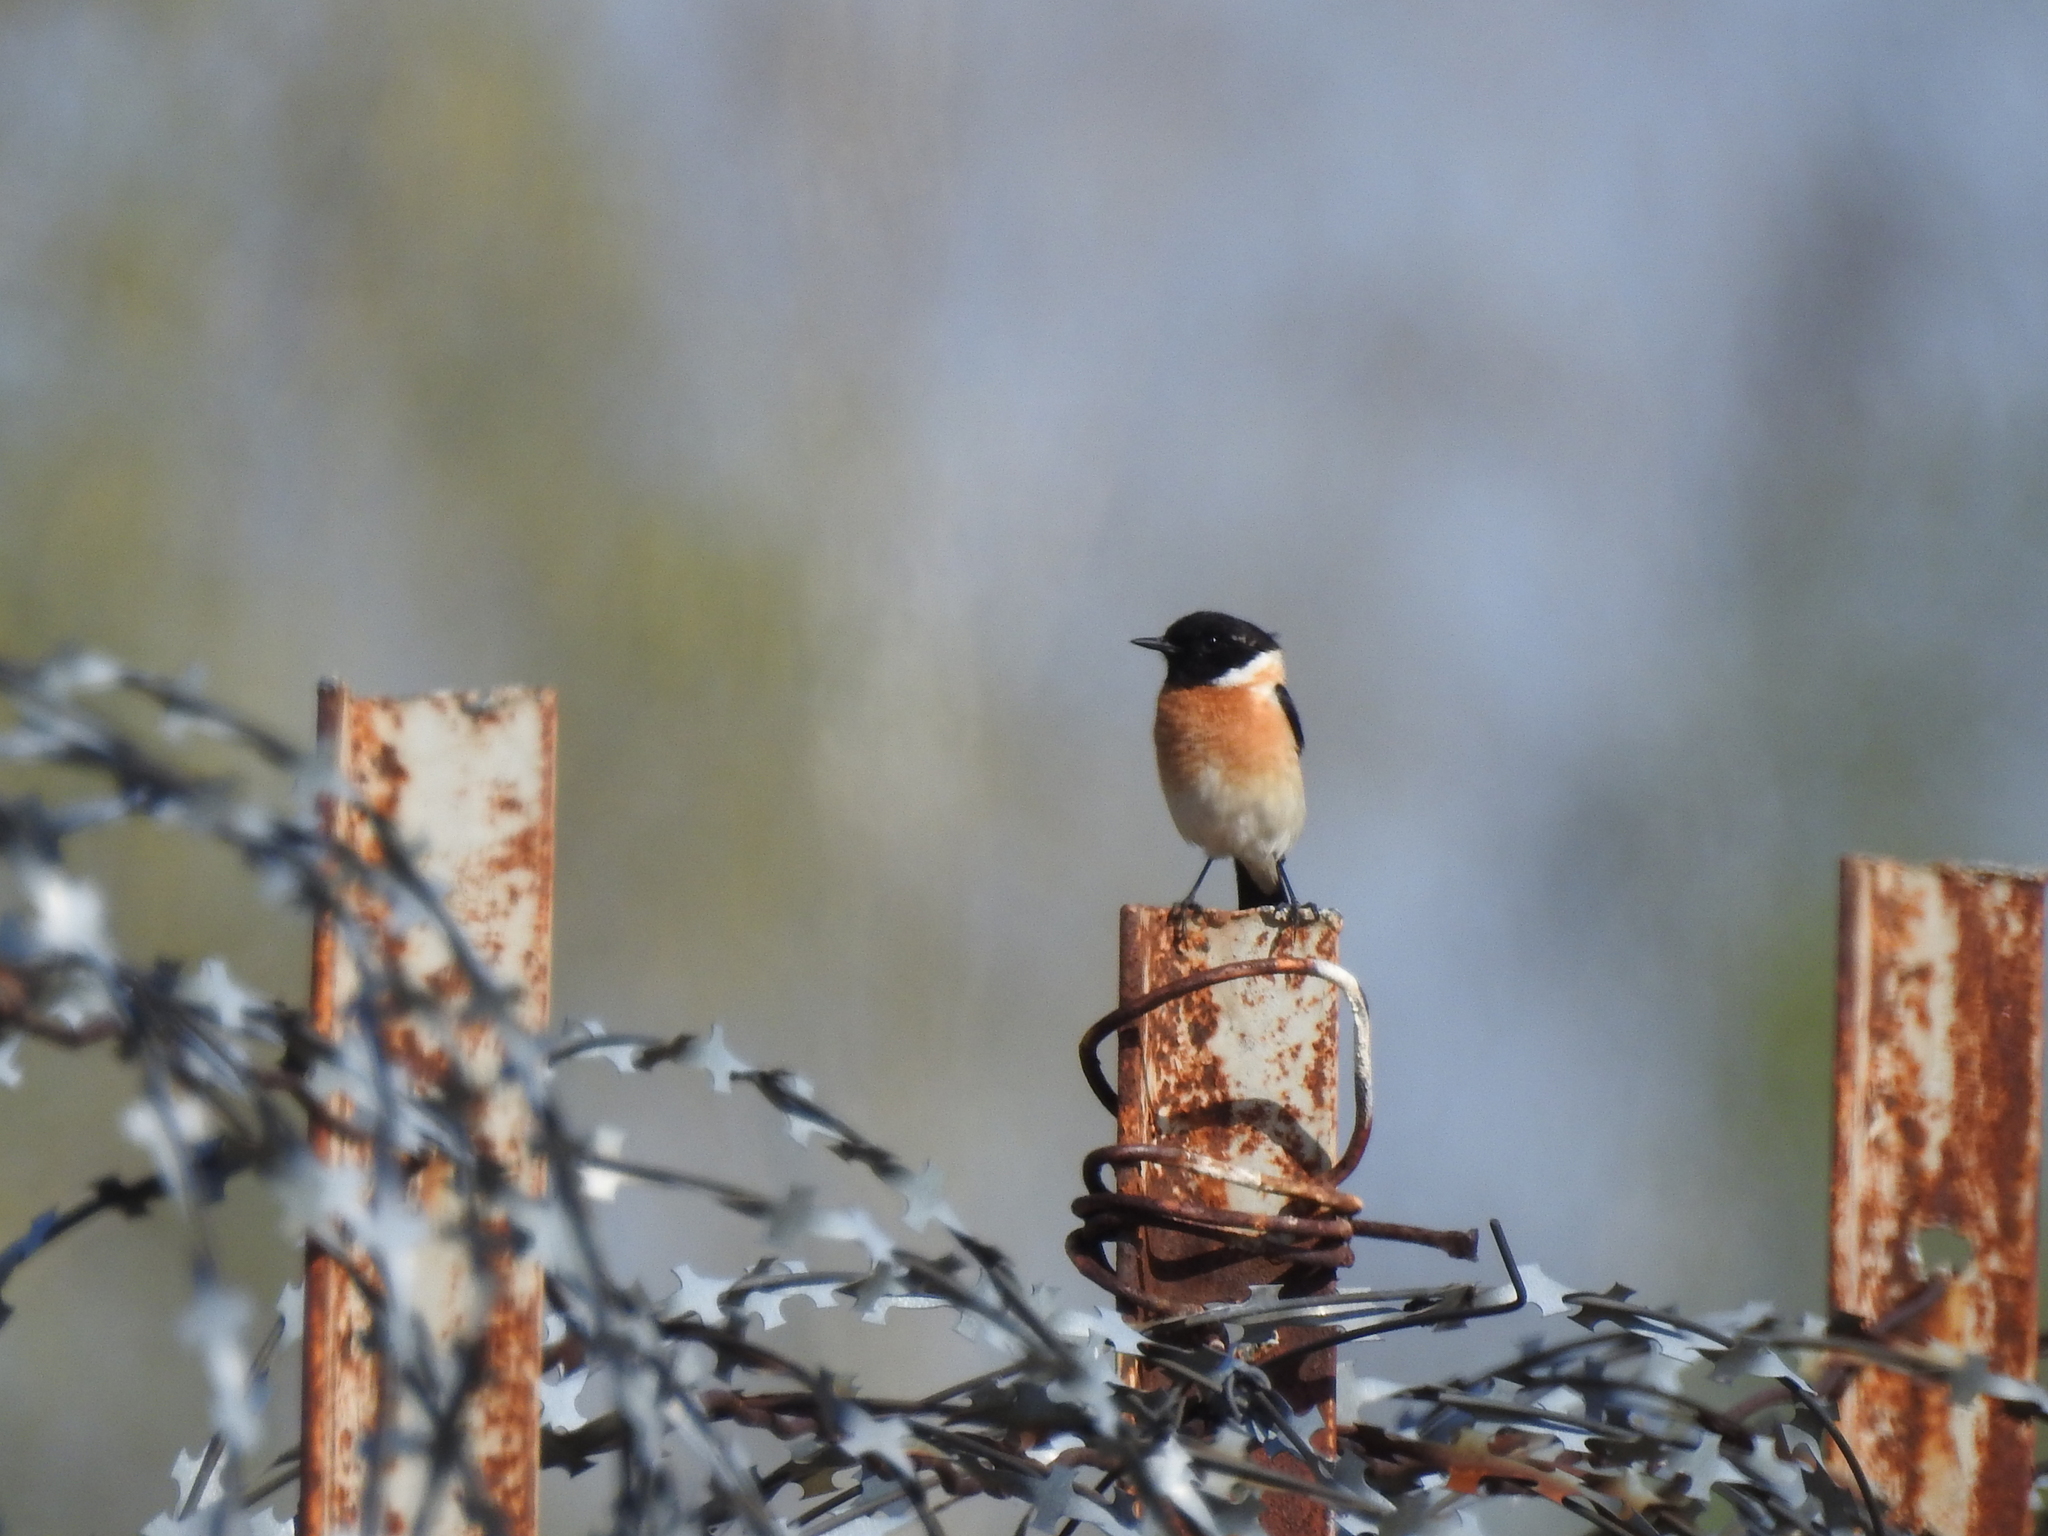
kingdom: Animalia
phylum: Chordata
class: Aves
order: Passeriformes
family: Muscicapidae
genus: Saxicola
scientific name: Saxicola maurus
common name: Siberian stonechat
